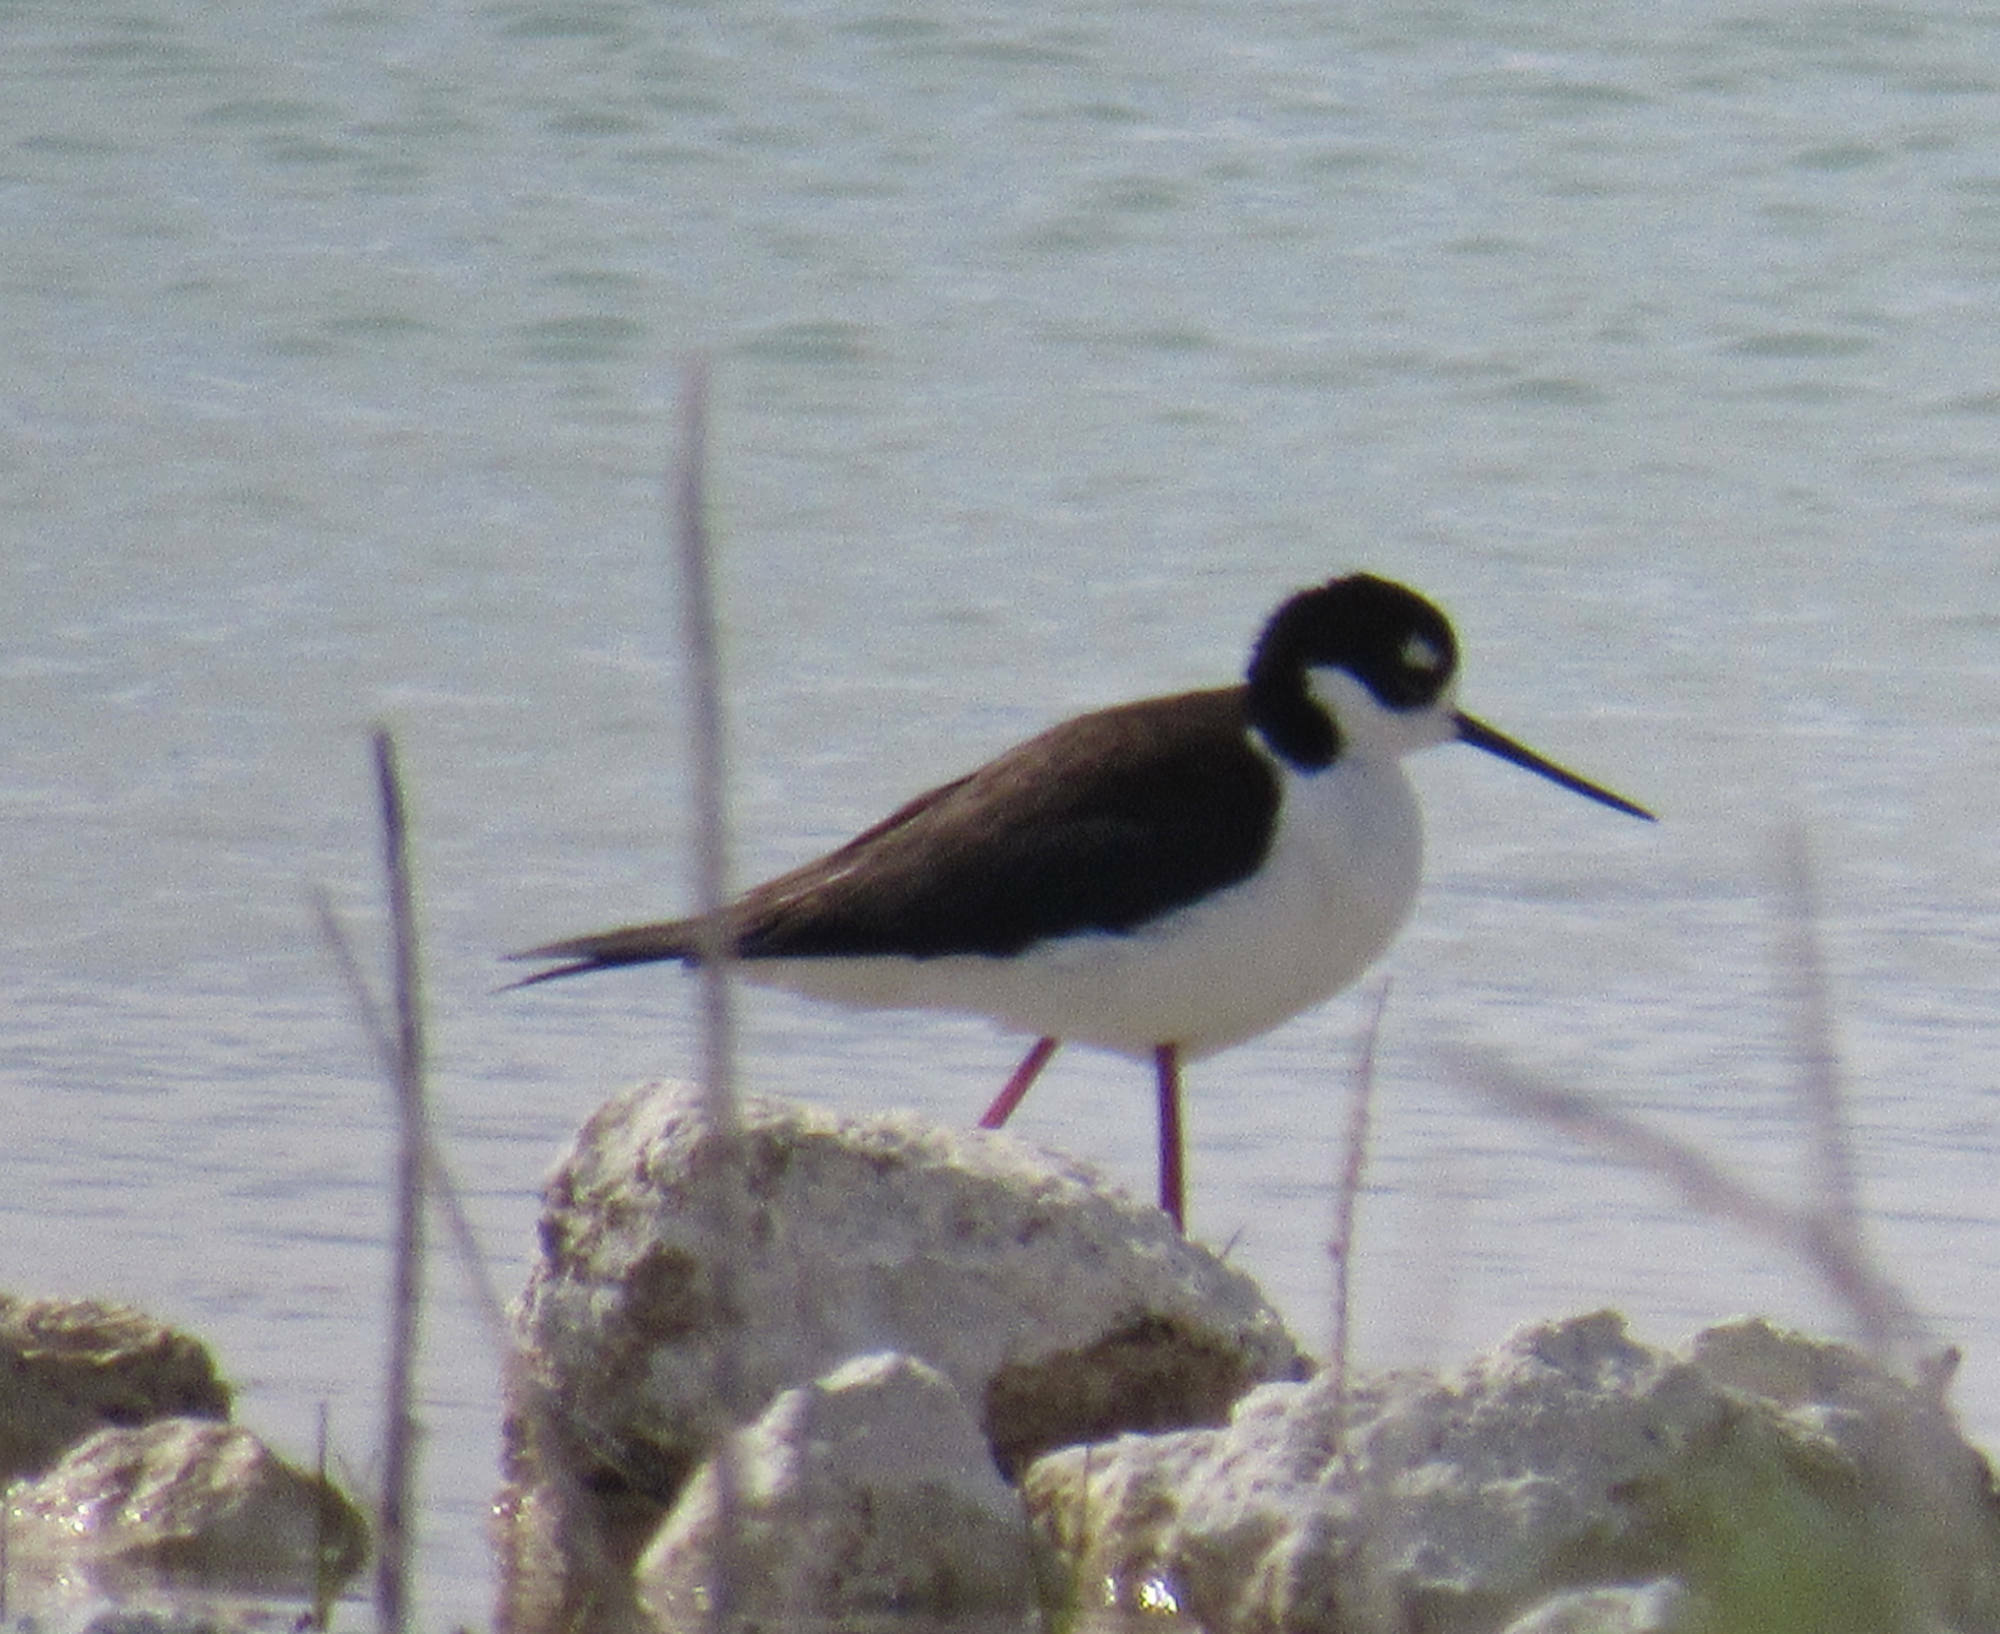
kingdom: Animalia
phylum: Chordata
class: Aves
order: Charadriiformes
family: Recurvirostridae
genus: Himantopus
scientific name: Himantopus mexicanus
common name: Black-necked stilt
